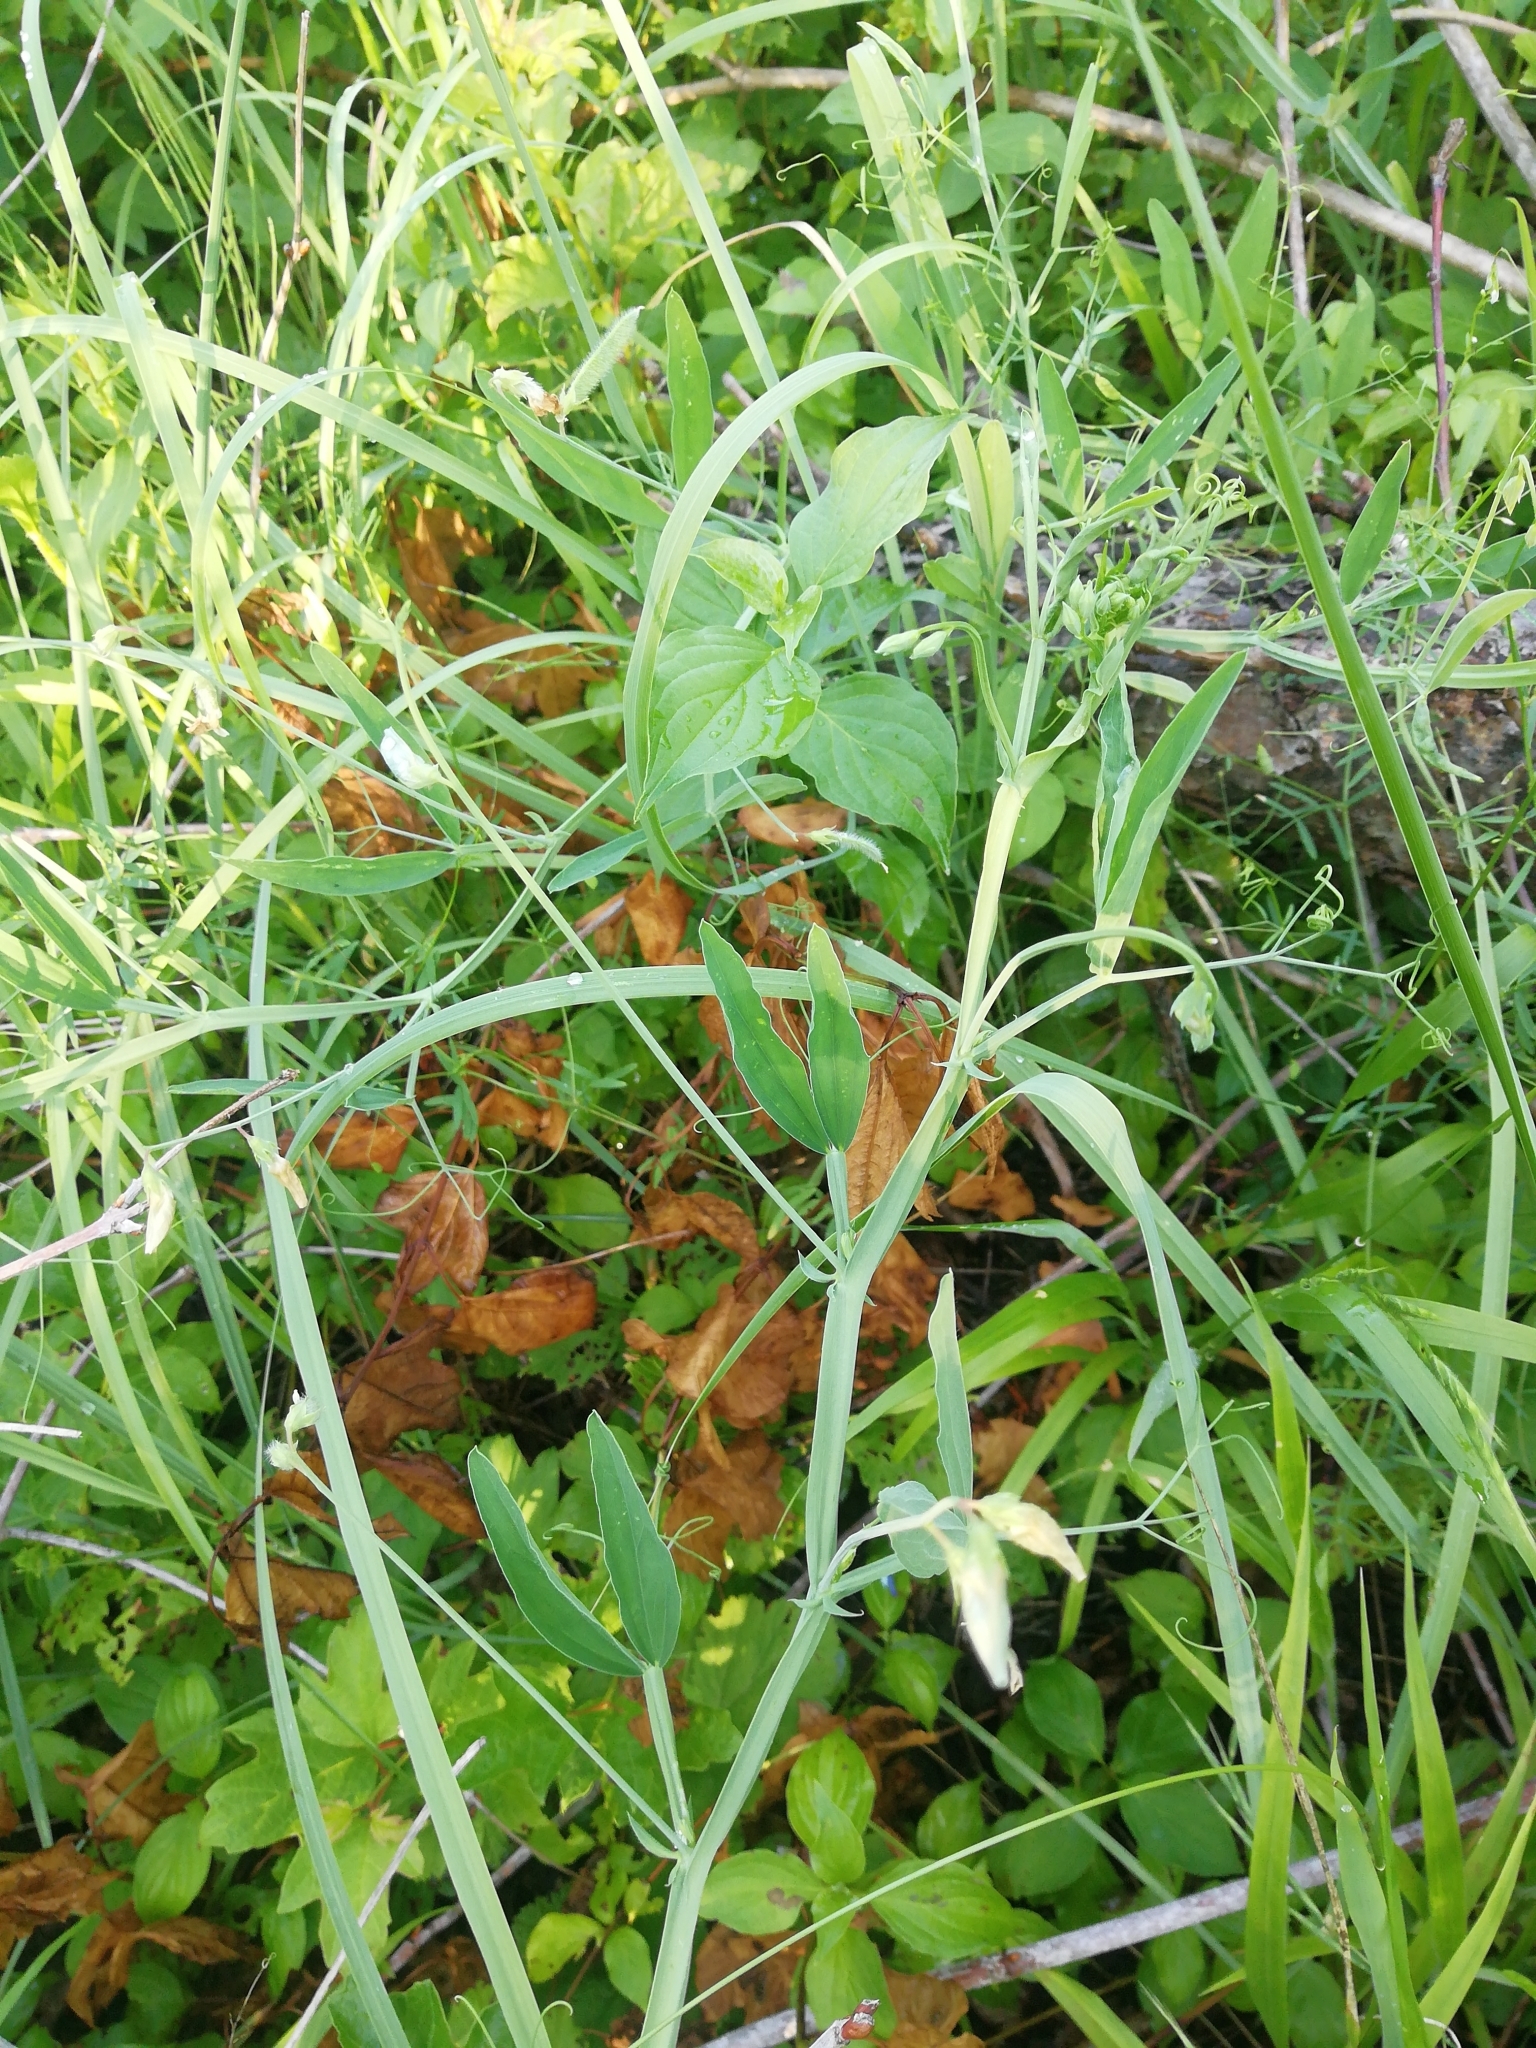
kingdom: Plantae
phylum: Tracheophyta
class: Magnoliopsida
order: Fabales
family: Fabaceae
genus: Lathyrus
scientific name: Lathyrus hirsutus
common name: Hairy vetchling
